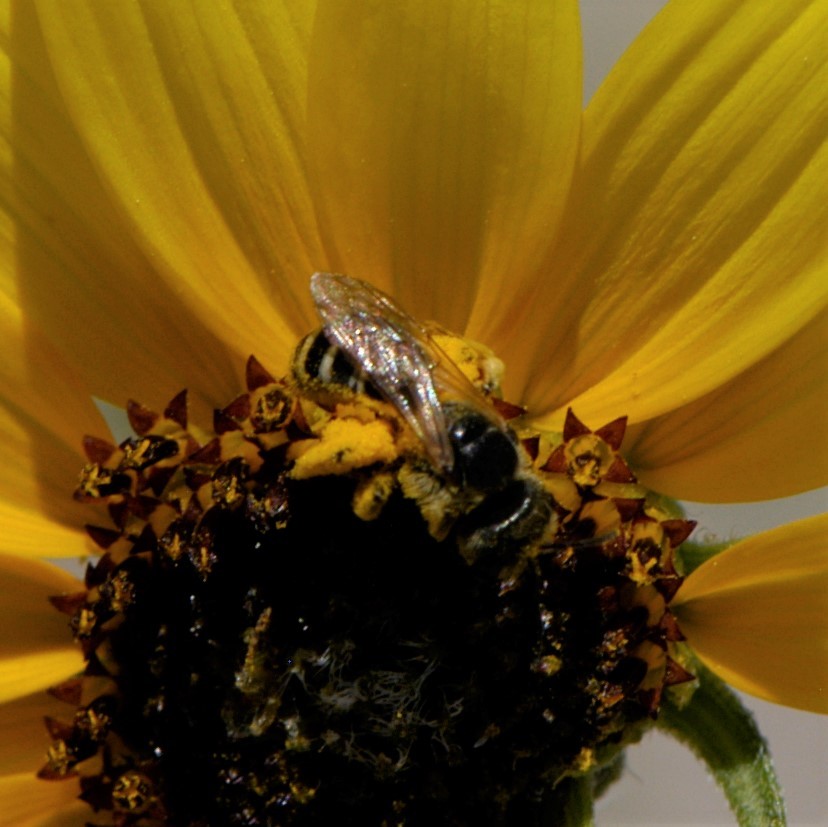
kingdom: Animalia
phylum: Arthropoda
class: Insecta
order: Hymenoptera
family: Halictidae
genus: Halictus
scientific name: Halictus ligatus
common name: Ligated furrow bee
